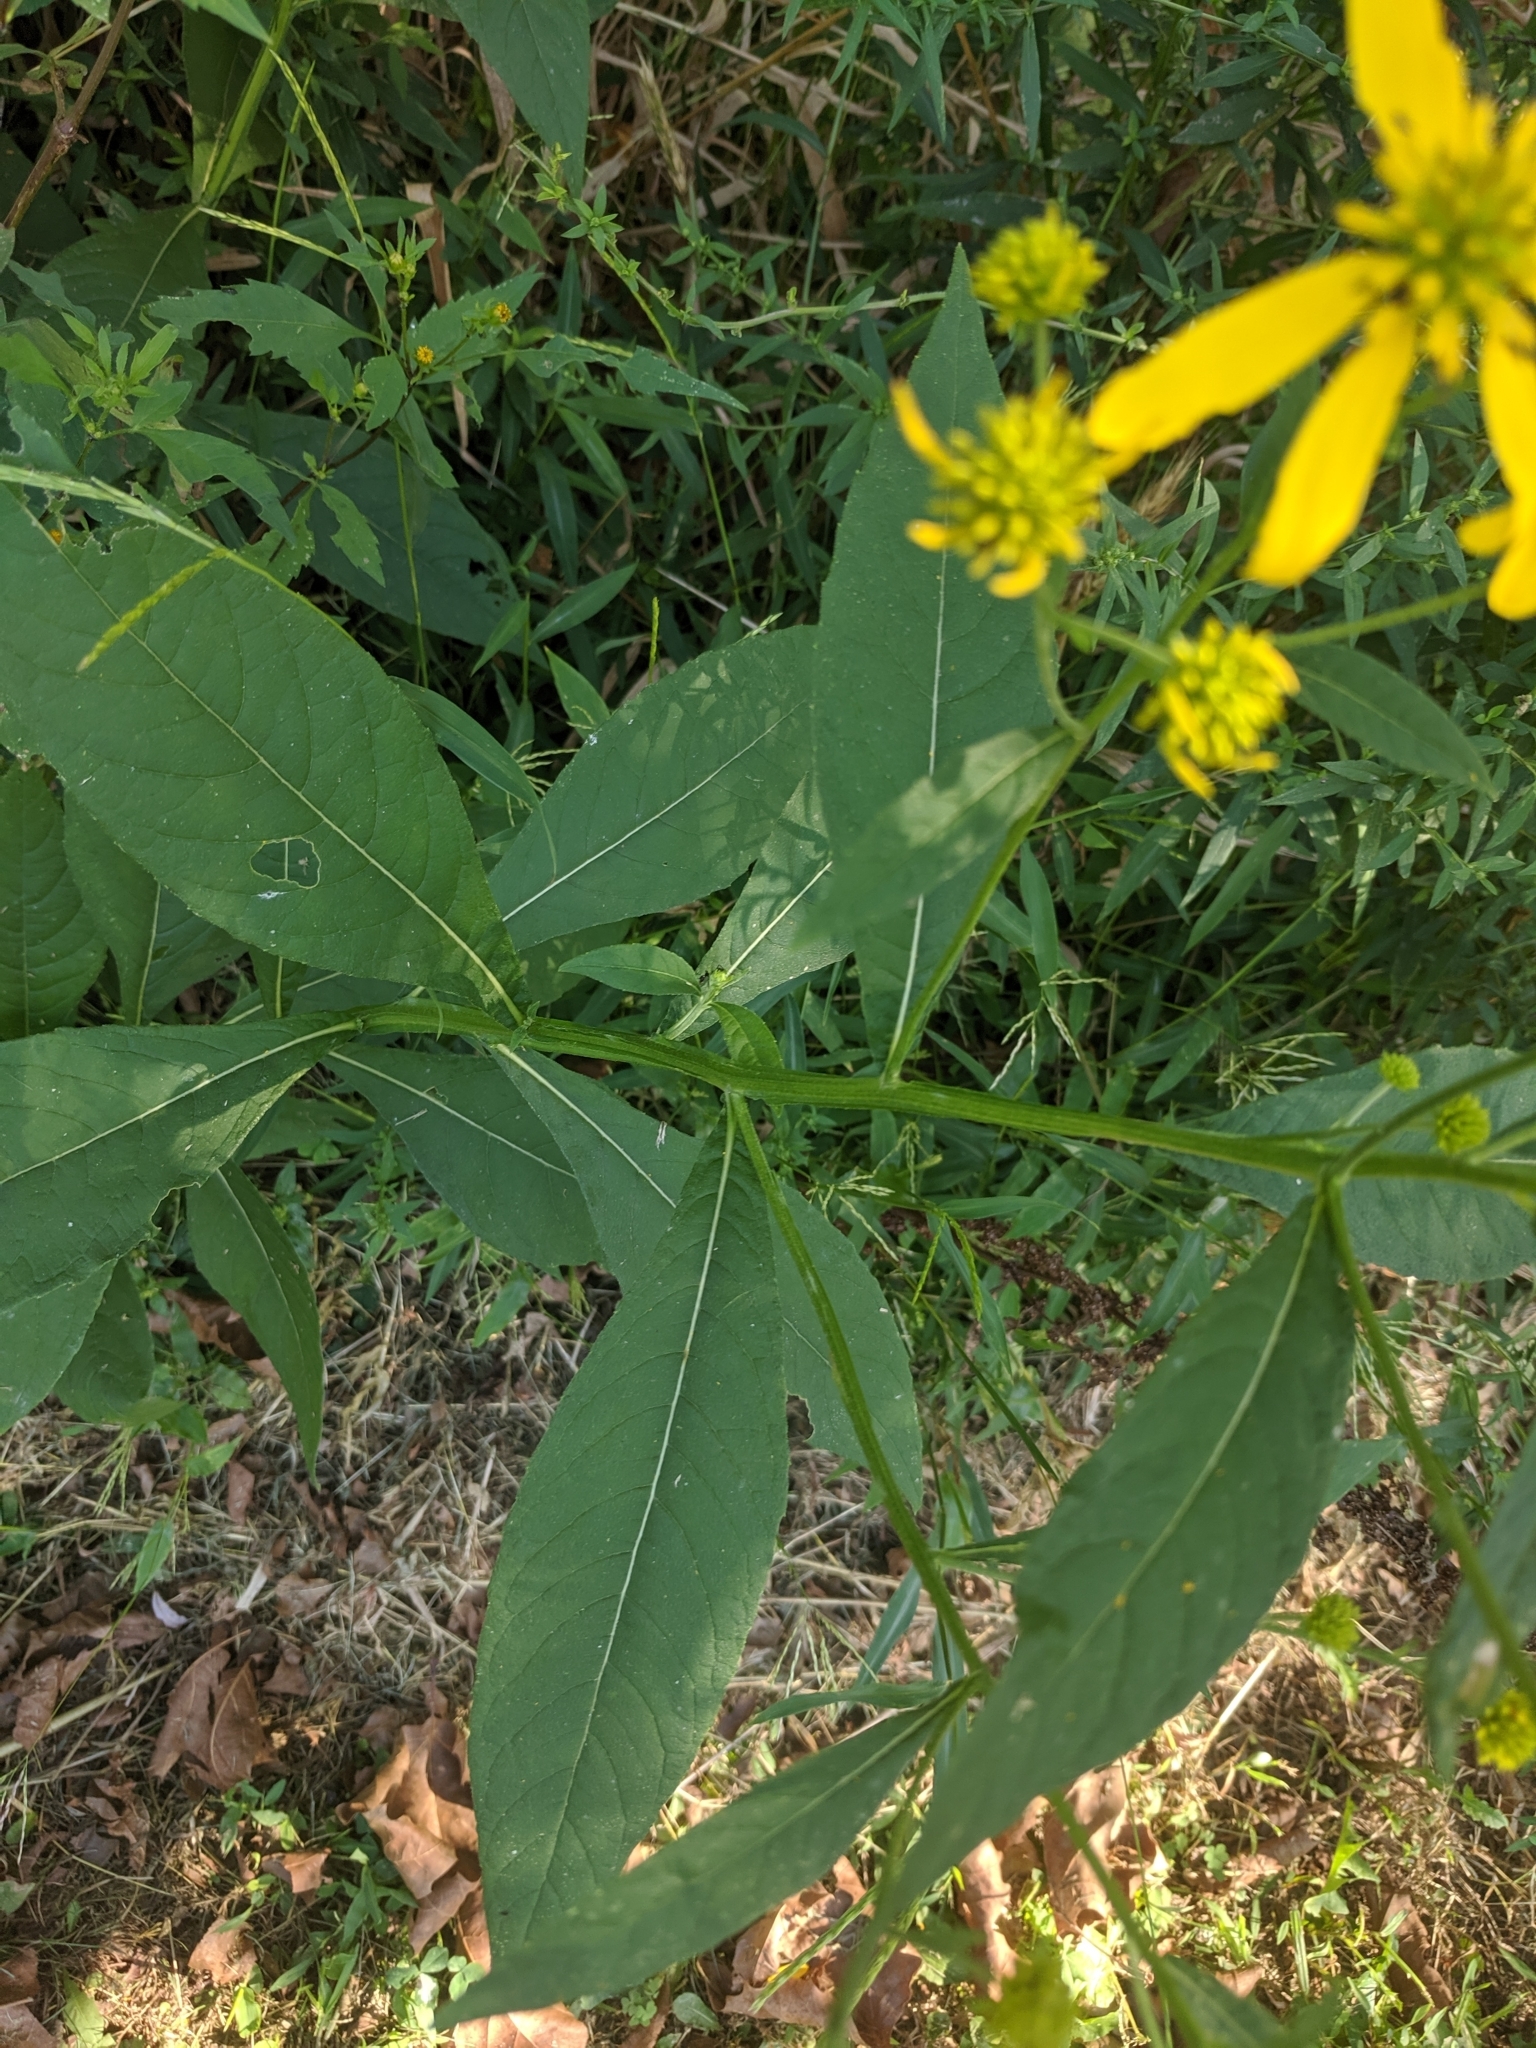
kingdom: Plantae
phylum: Tracheophyta
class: Magnoliopsida
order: Asterales
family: Asteraceae
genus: Verbesina
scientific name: Verbesina alternifolia
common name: Wingstem
